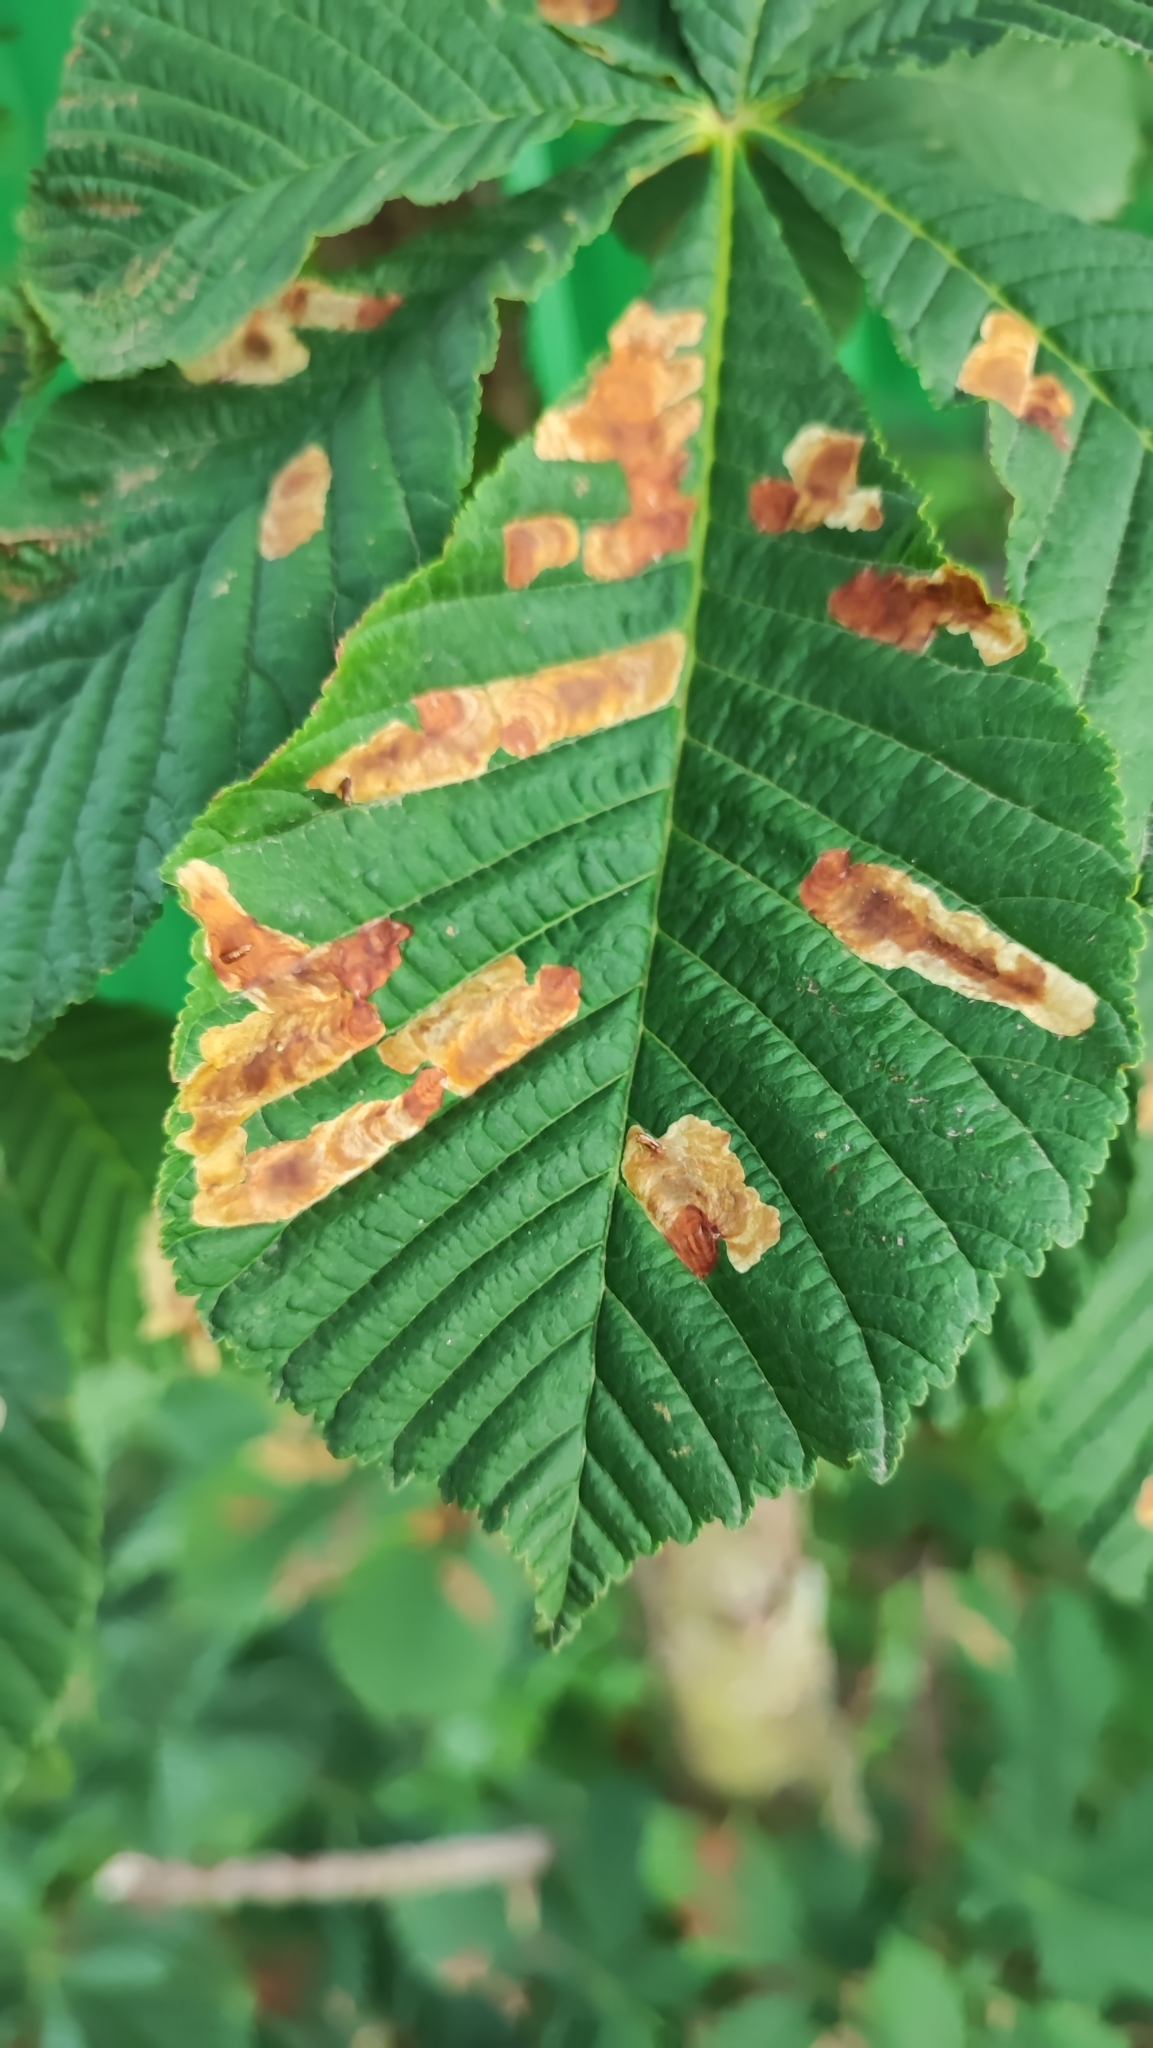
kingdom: Animalia
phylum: Arthropoda
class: Insecta
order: Lepidoptera
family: Gracillariidae
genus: Cameraria
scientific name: Cameraria ohridella
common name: Horse-chestnut leaf-miner
